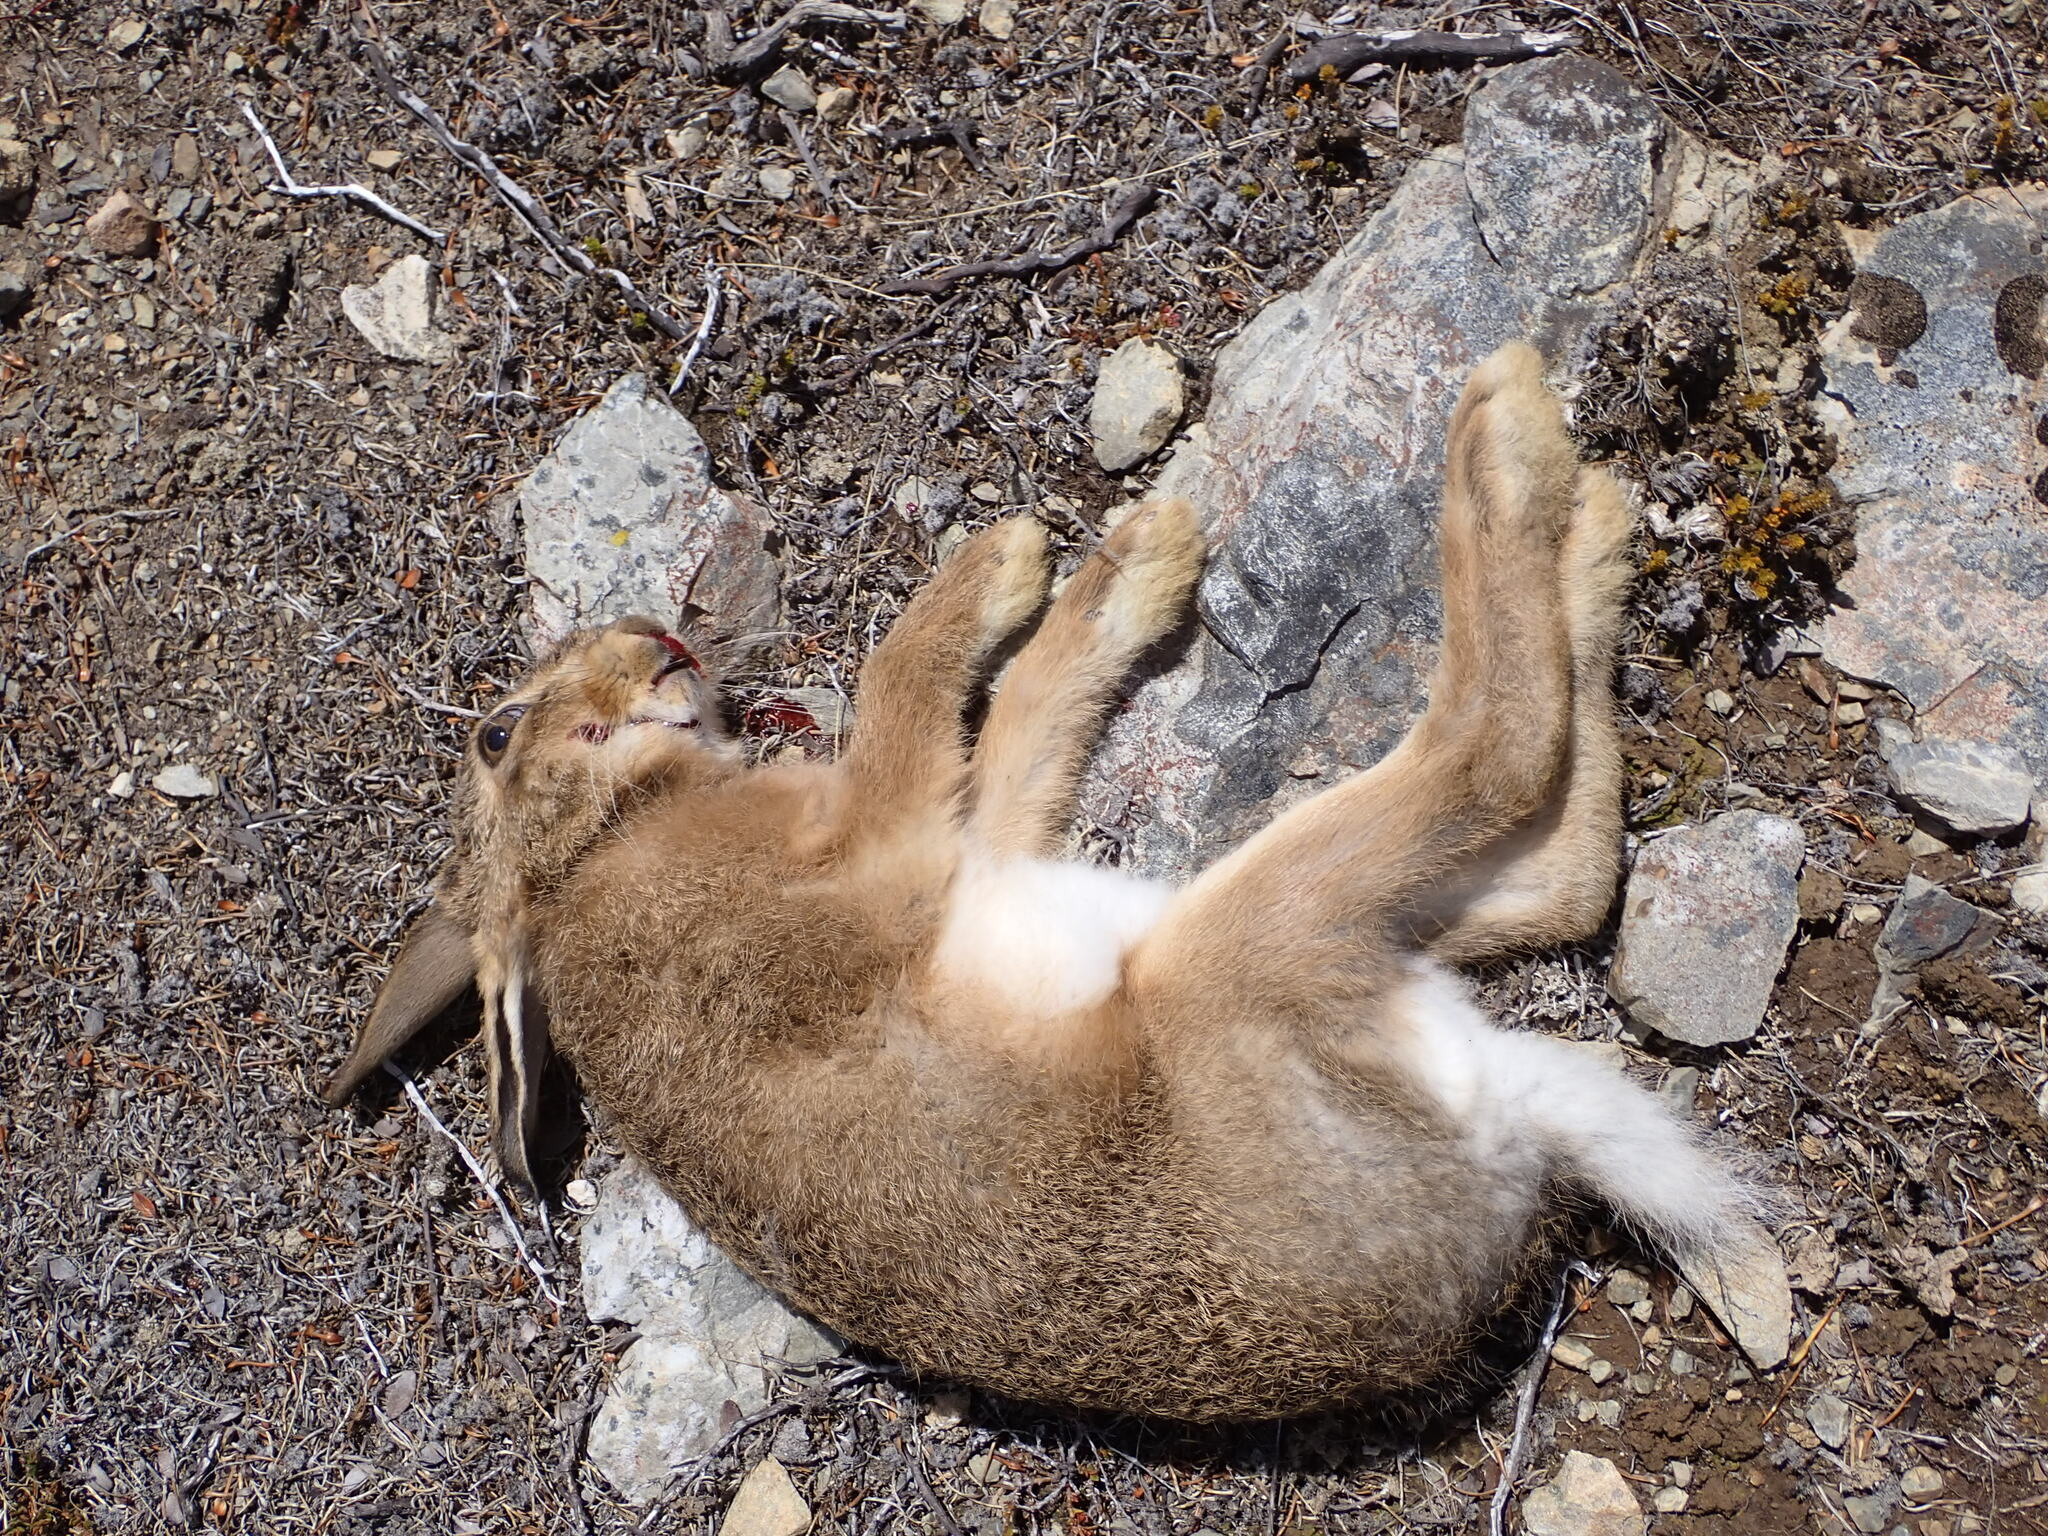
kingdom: Animalia
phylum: Chordata
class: Mammalia
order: Lagomorpha
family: Leporidae
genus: Lepus
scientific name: Lepus europaeus
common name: European hare
